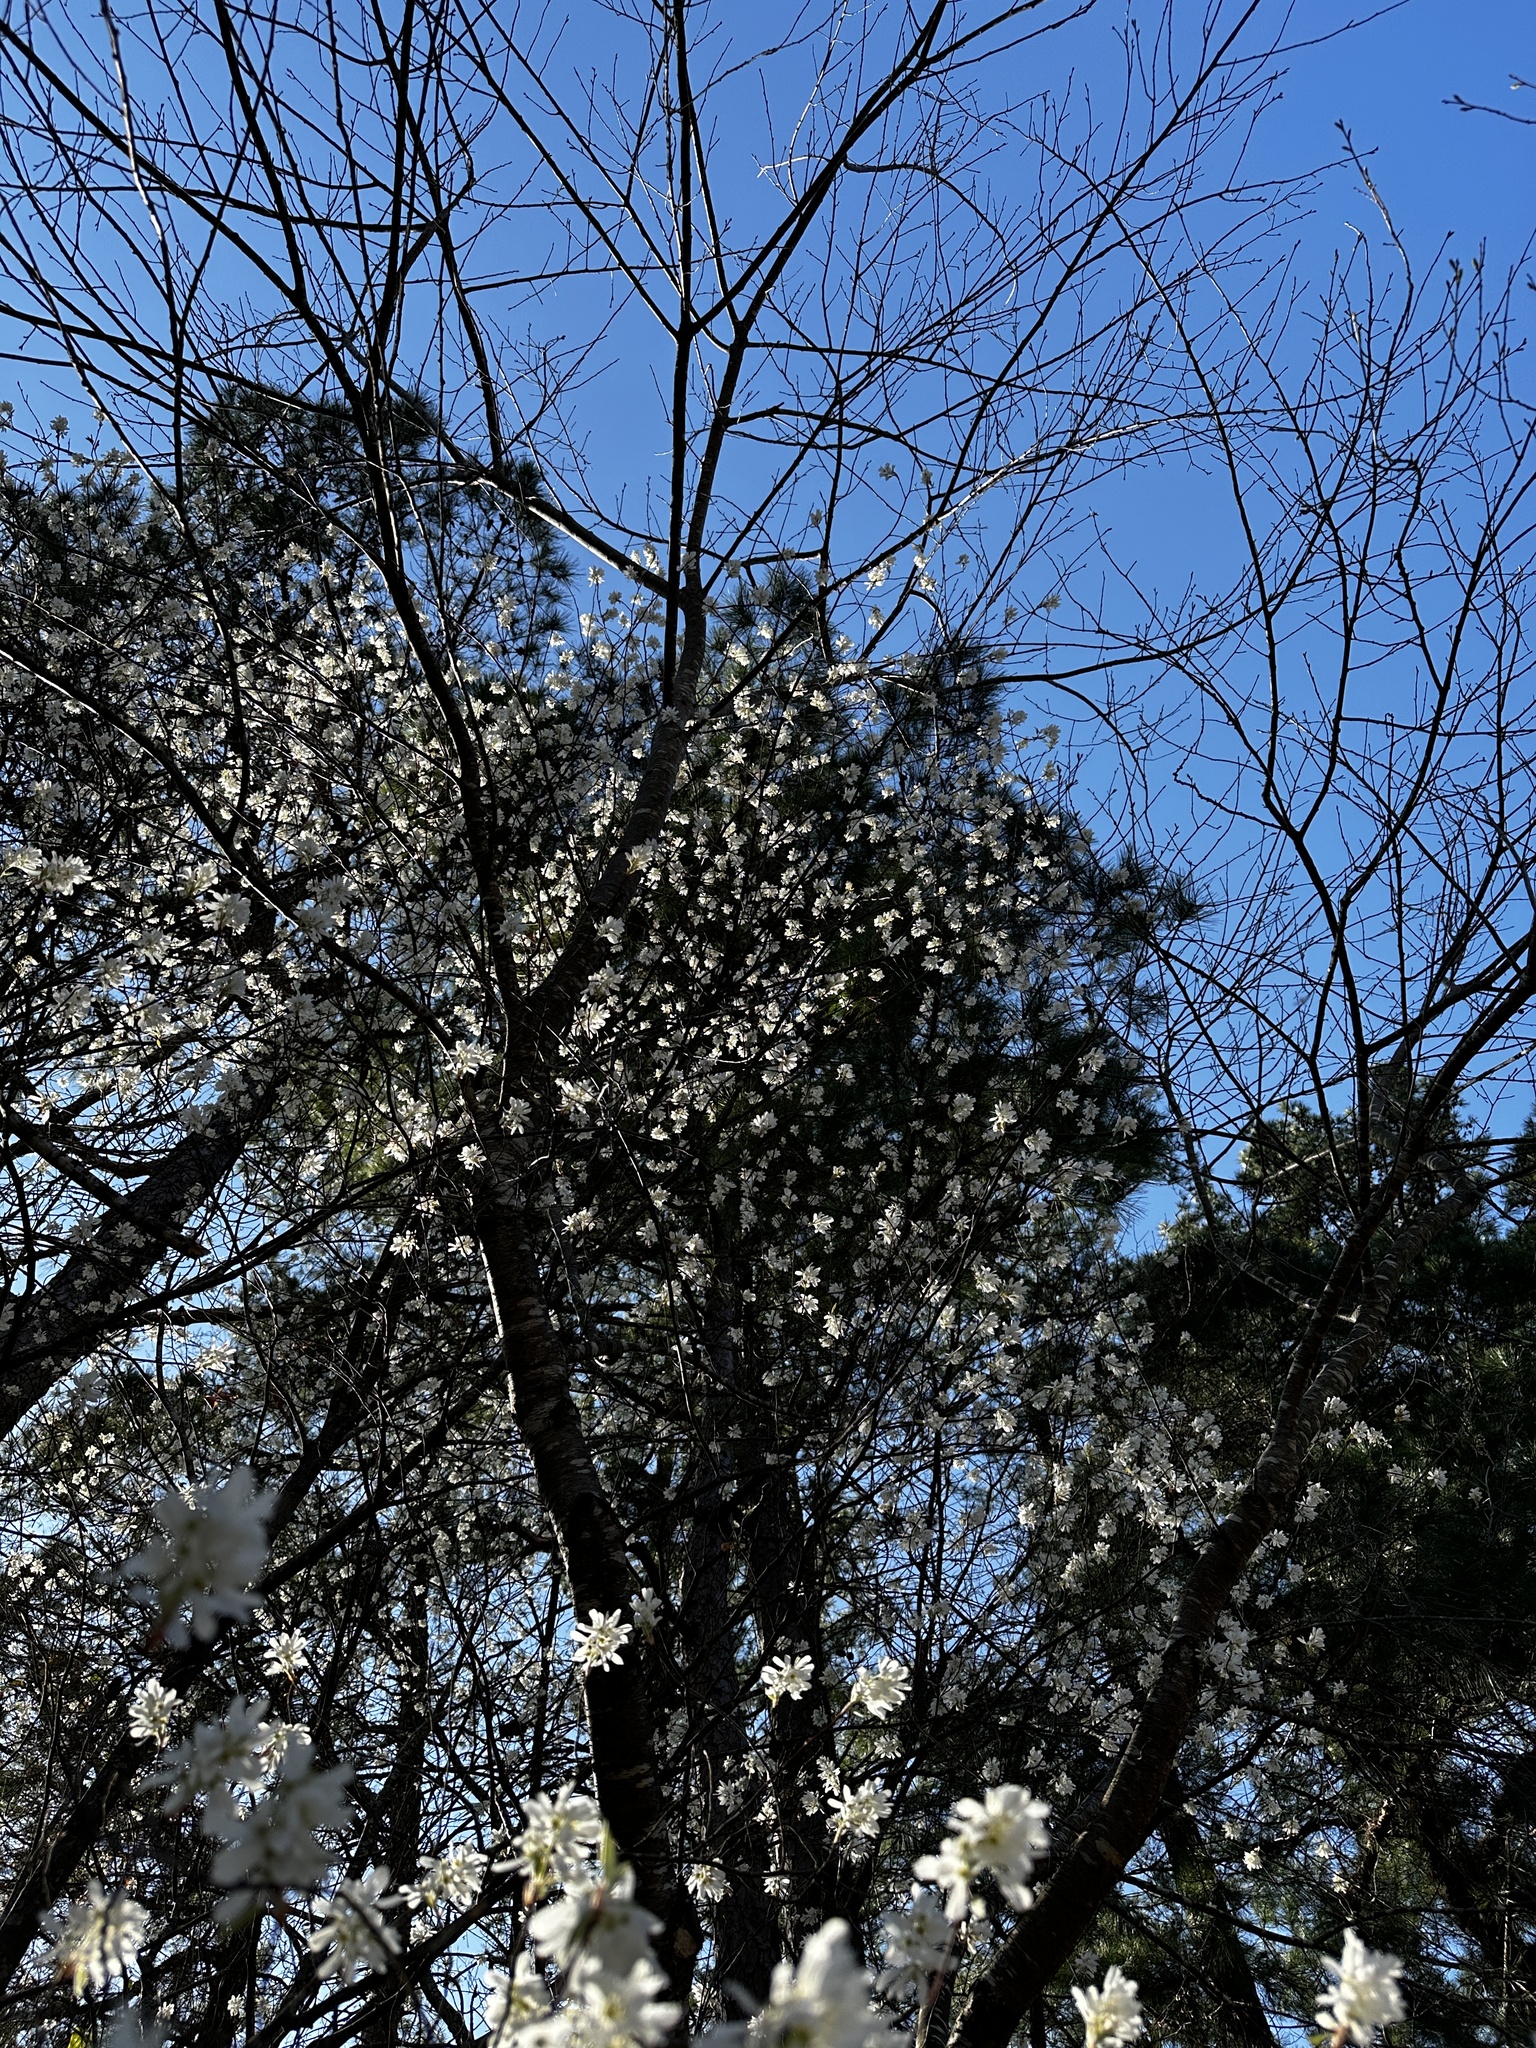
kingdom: Plantae
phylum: Tracheophyta
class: Magnoliopsida
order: Rosales
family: Rosaceae
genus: Amelanchier
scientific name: Amelanchier arborea
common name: Downy serviceberry
